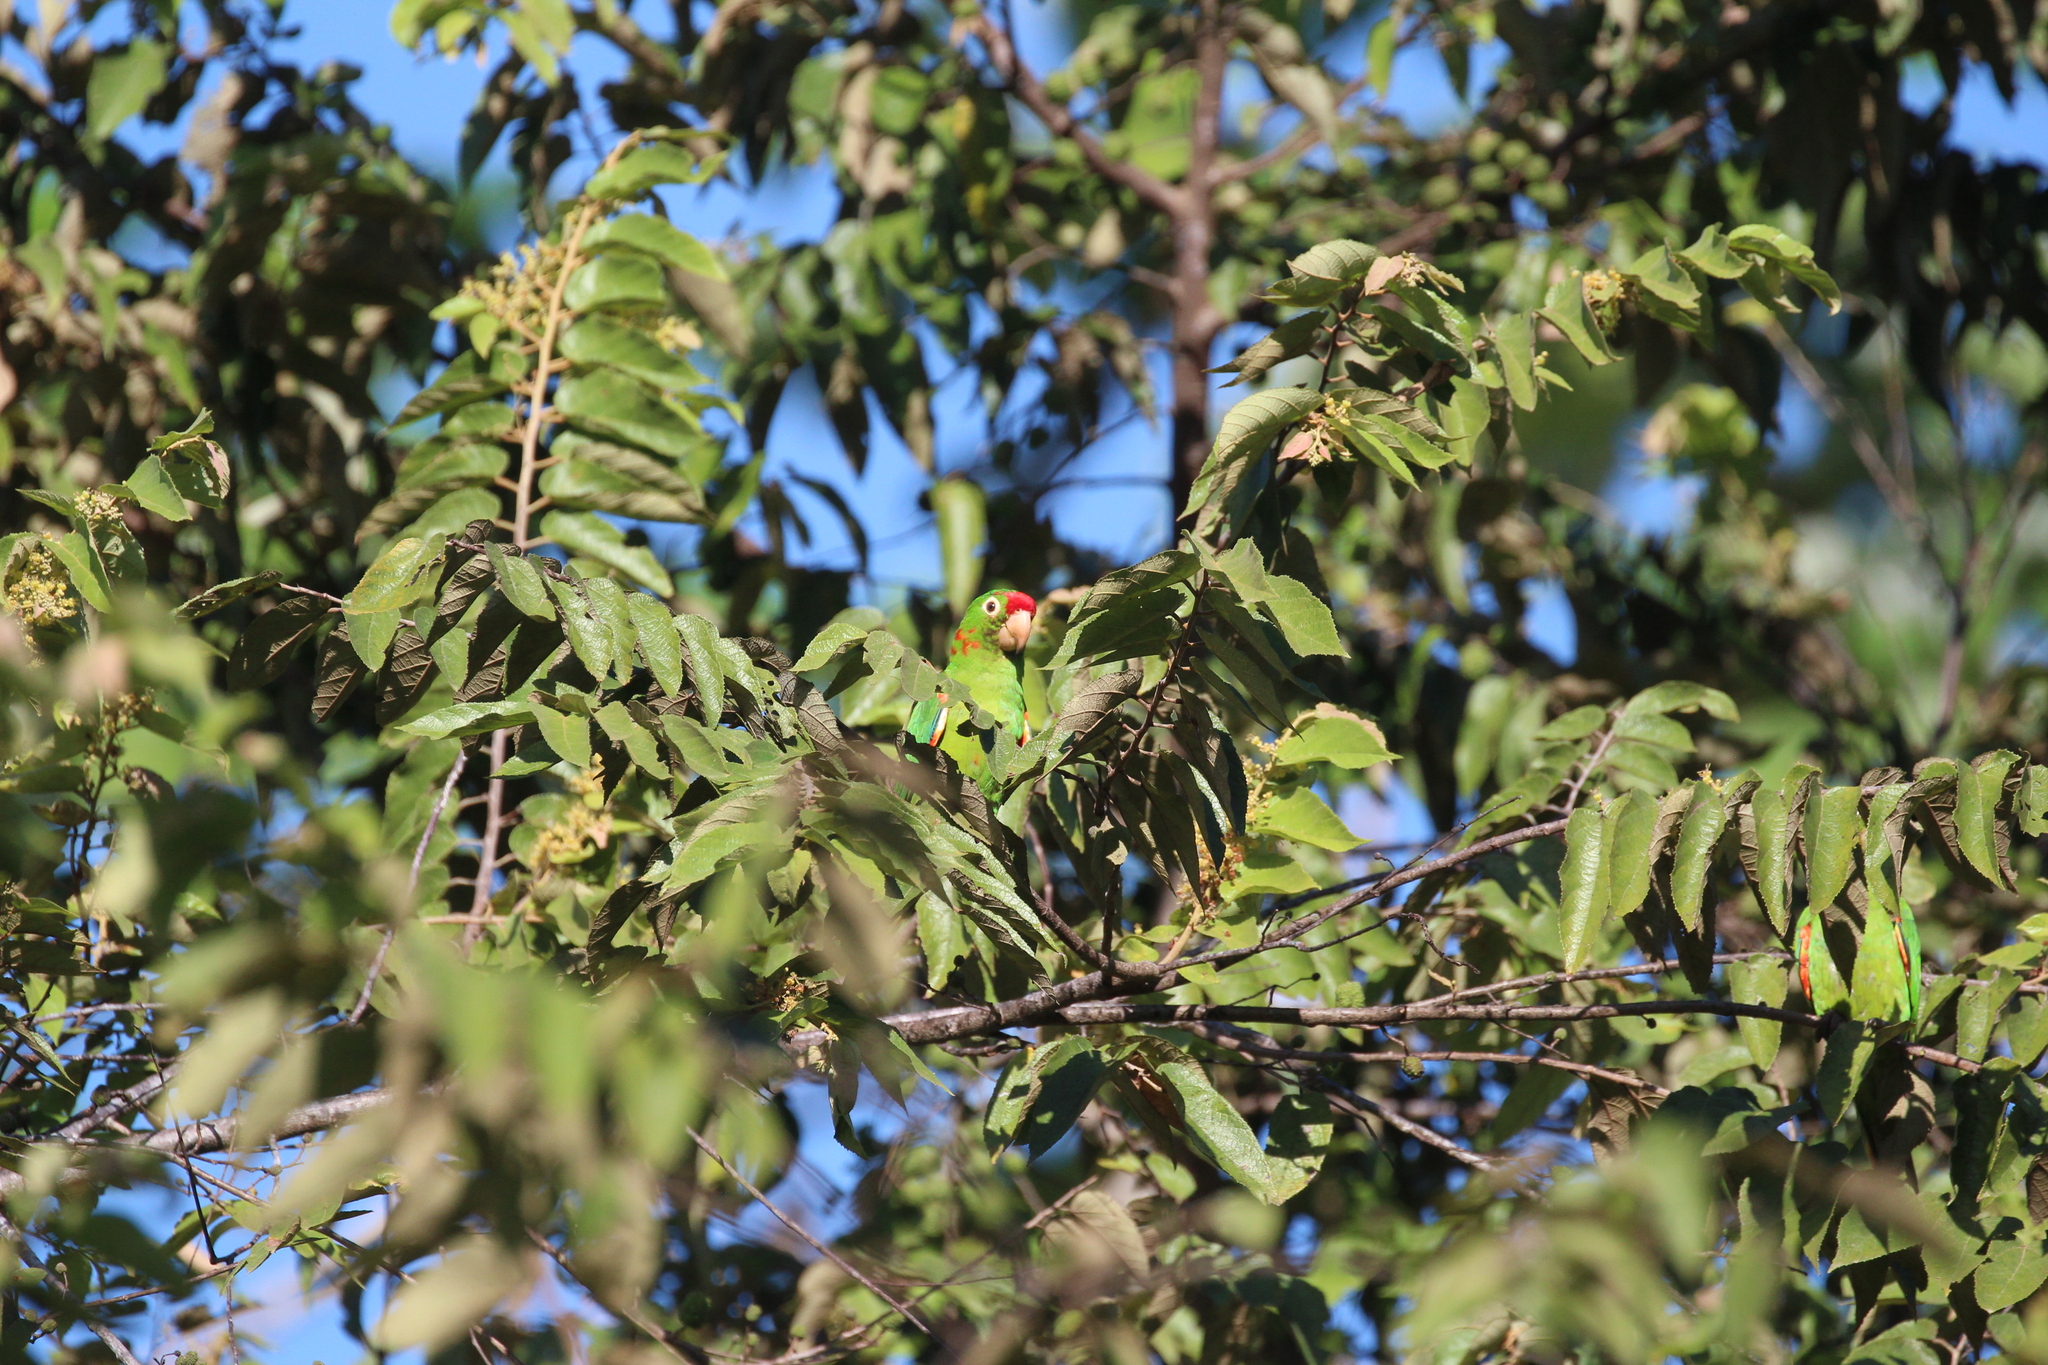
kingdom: Animalia
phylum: Chordata
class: Aves
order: Psittaciformes
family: Psittacidae
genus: Amazona
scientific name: Amazona autumnalis
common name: Red-lored amazon
